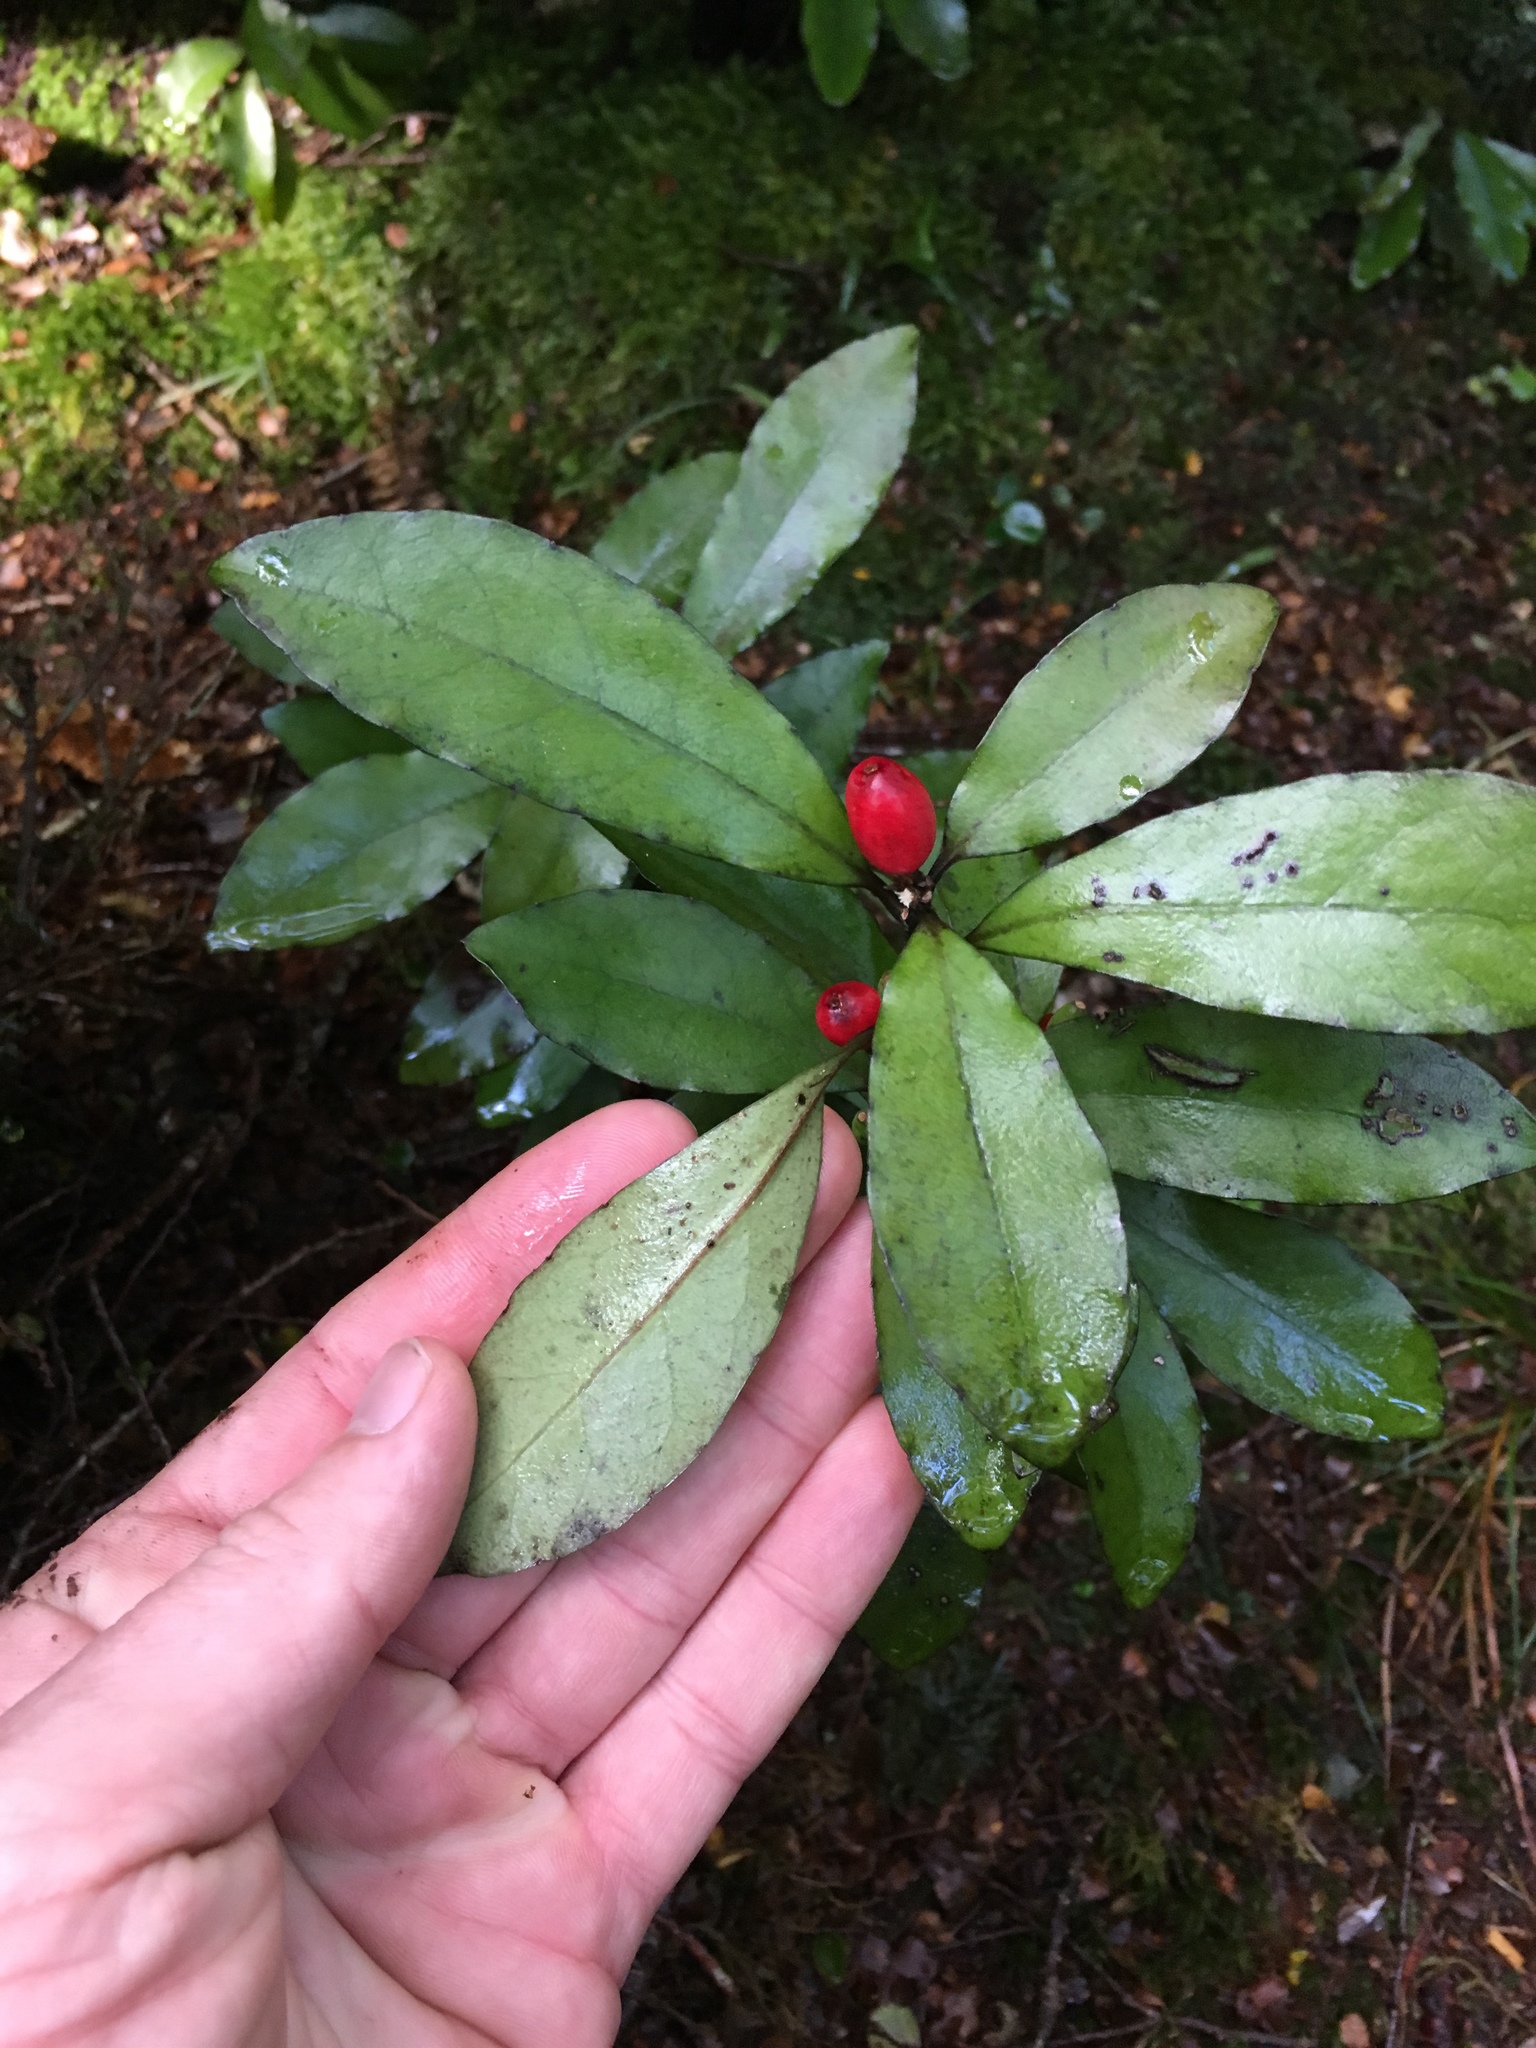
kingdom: Plantae
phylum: Tracheophyta
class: Magnoliopsida
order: Asterales
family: Alseuosmiaceae
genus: Alseuosmia
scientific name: Alseuosmia pusilla
